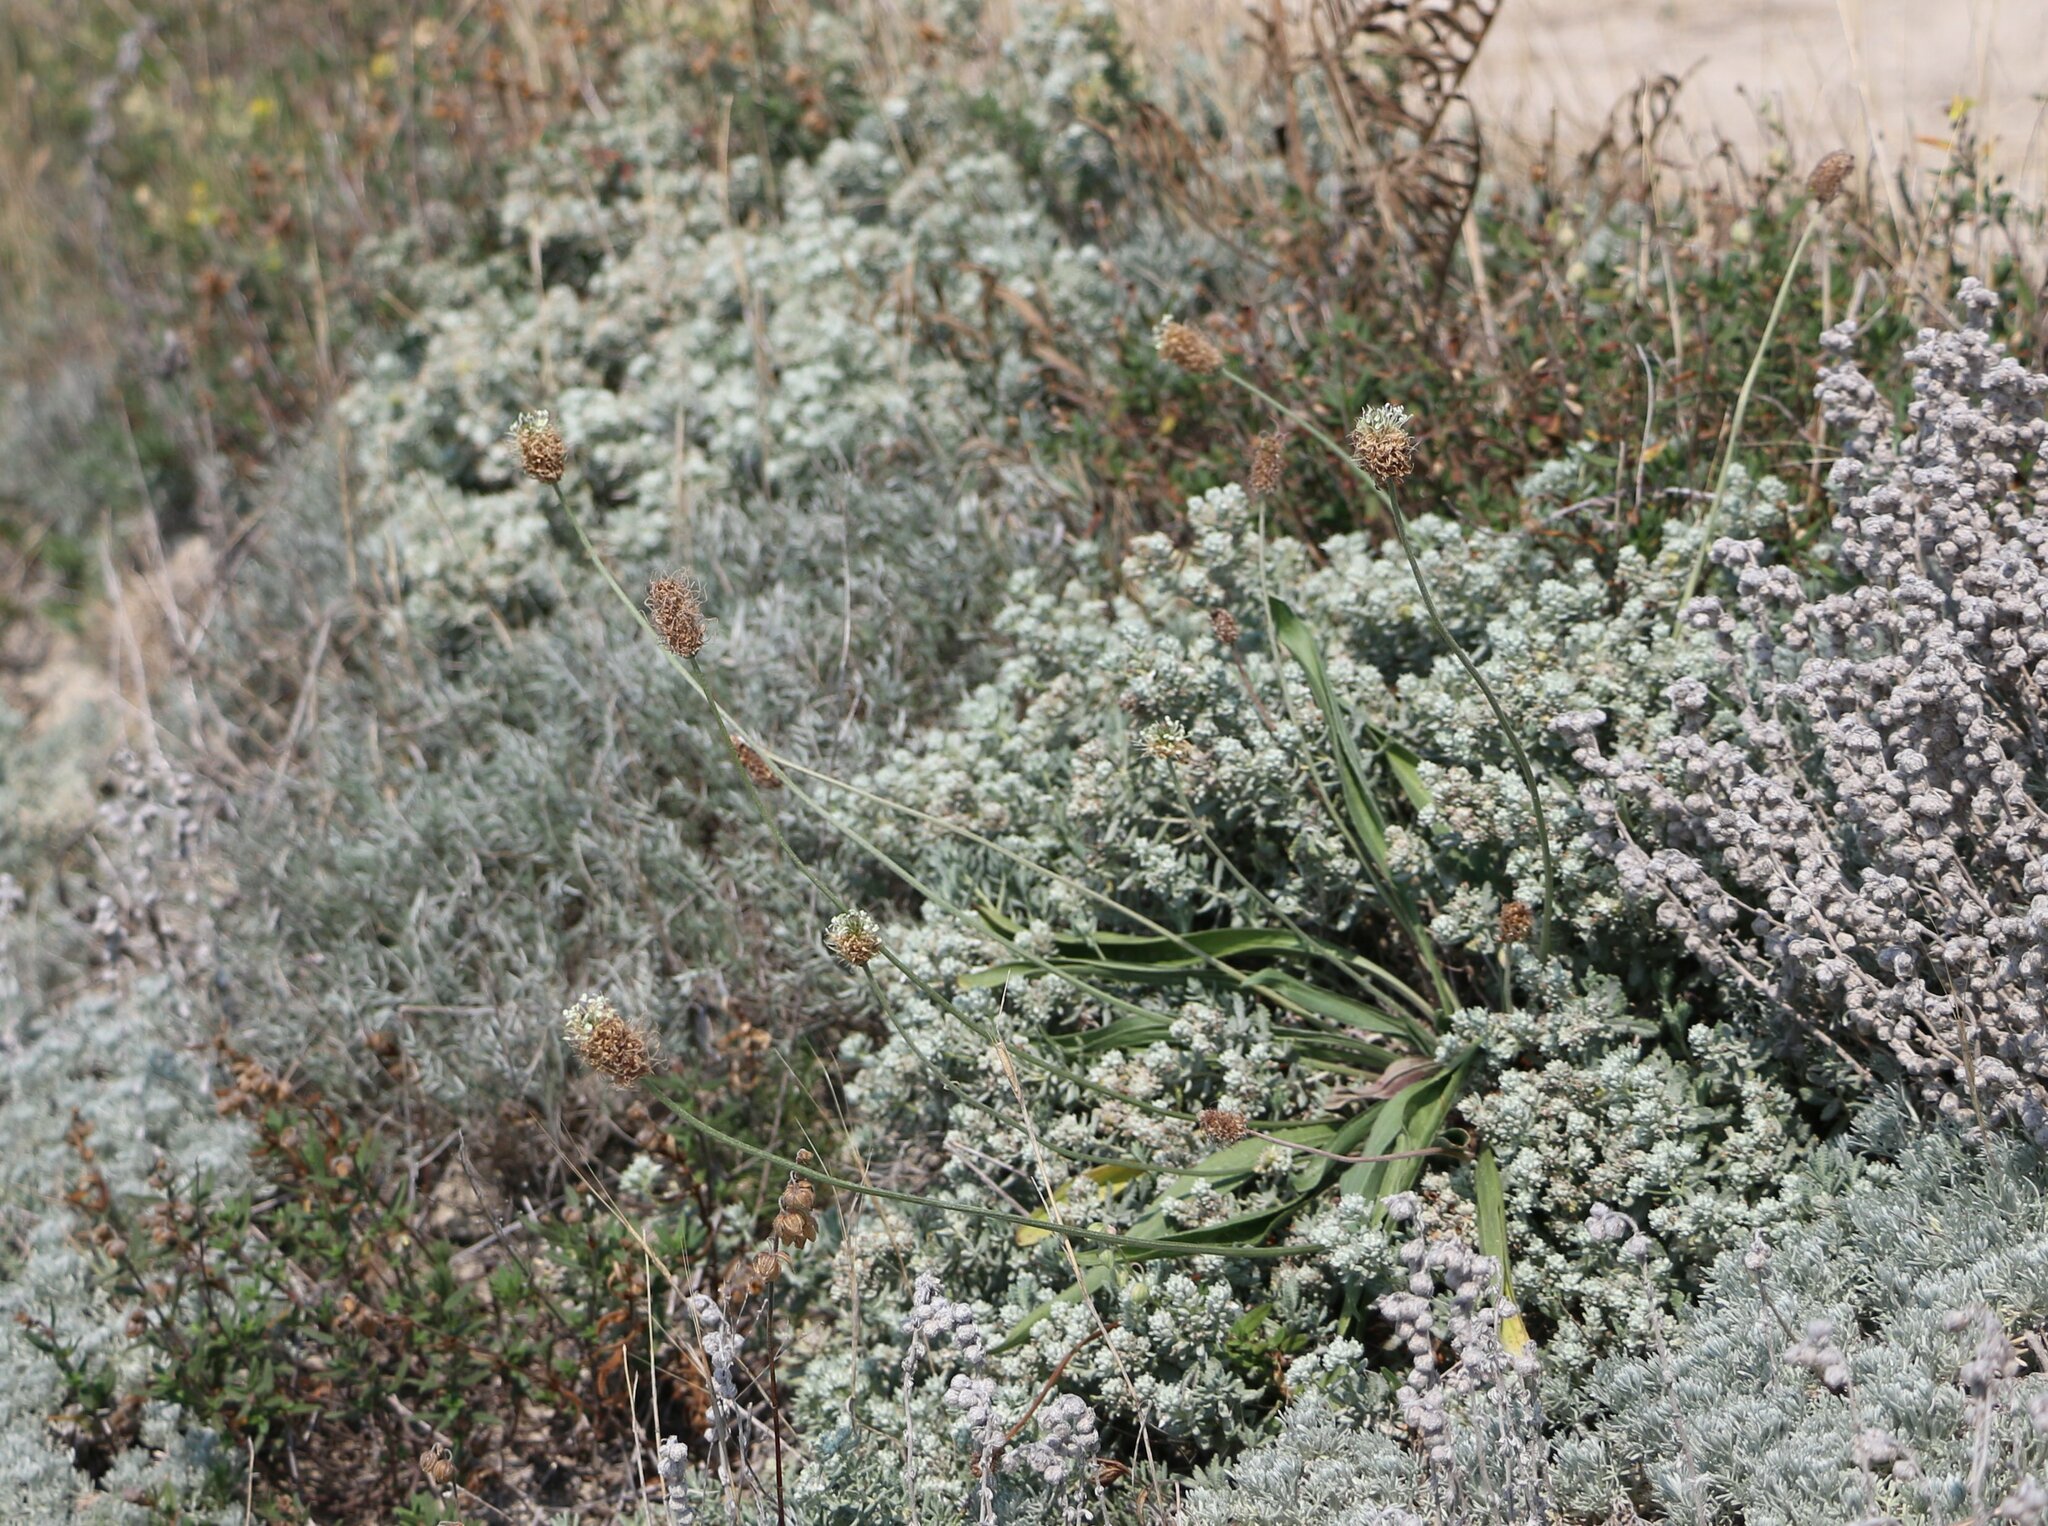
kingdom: Plantae
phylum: Tracheophyta
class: Magnoliopsida
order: Lamiales
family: Plantaginaceae
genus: Plantago
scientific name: Plantago lanceolata
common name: Ribwort plantain
